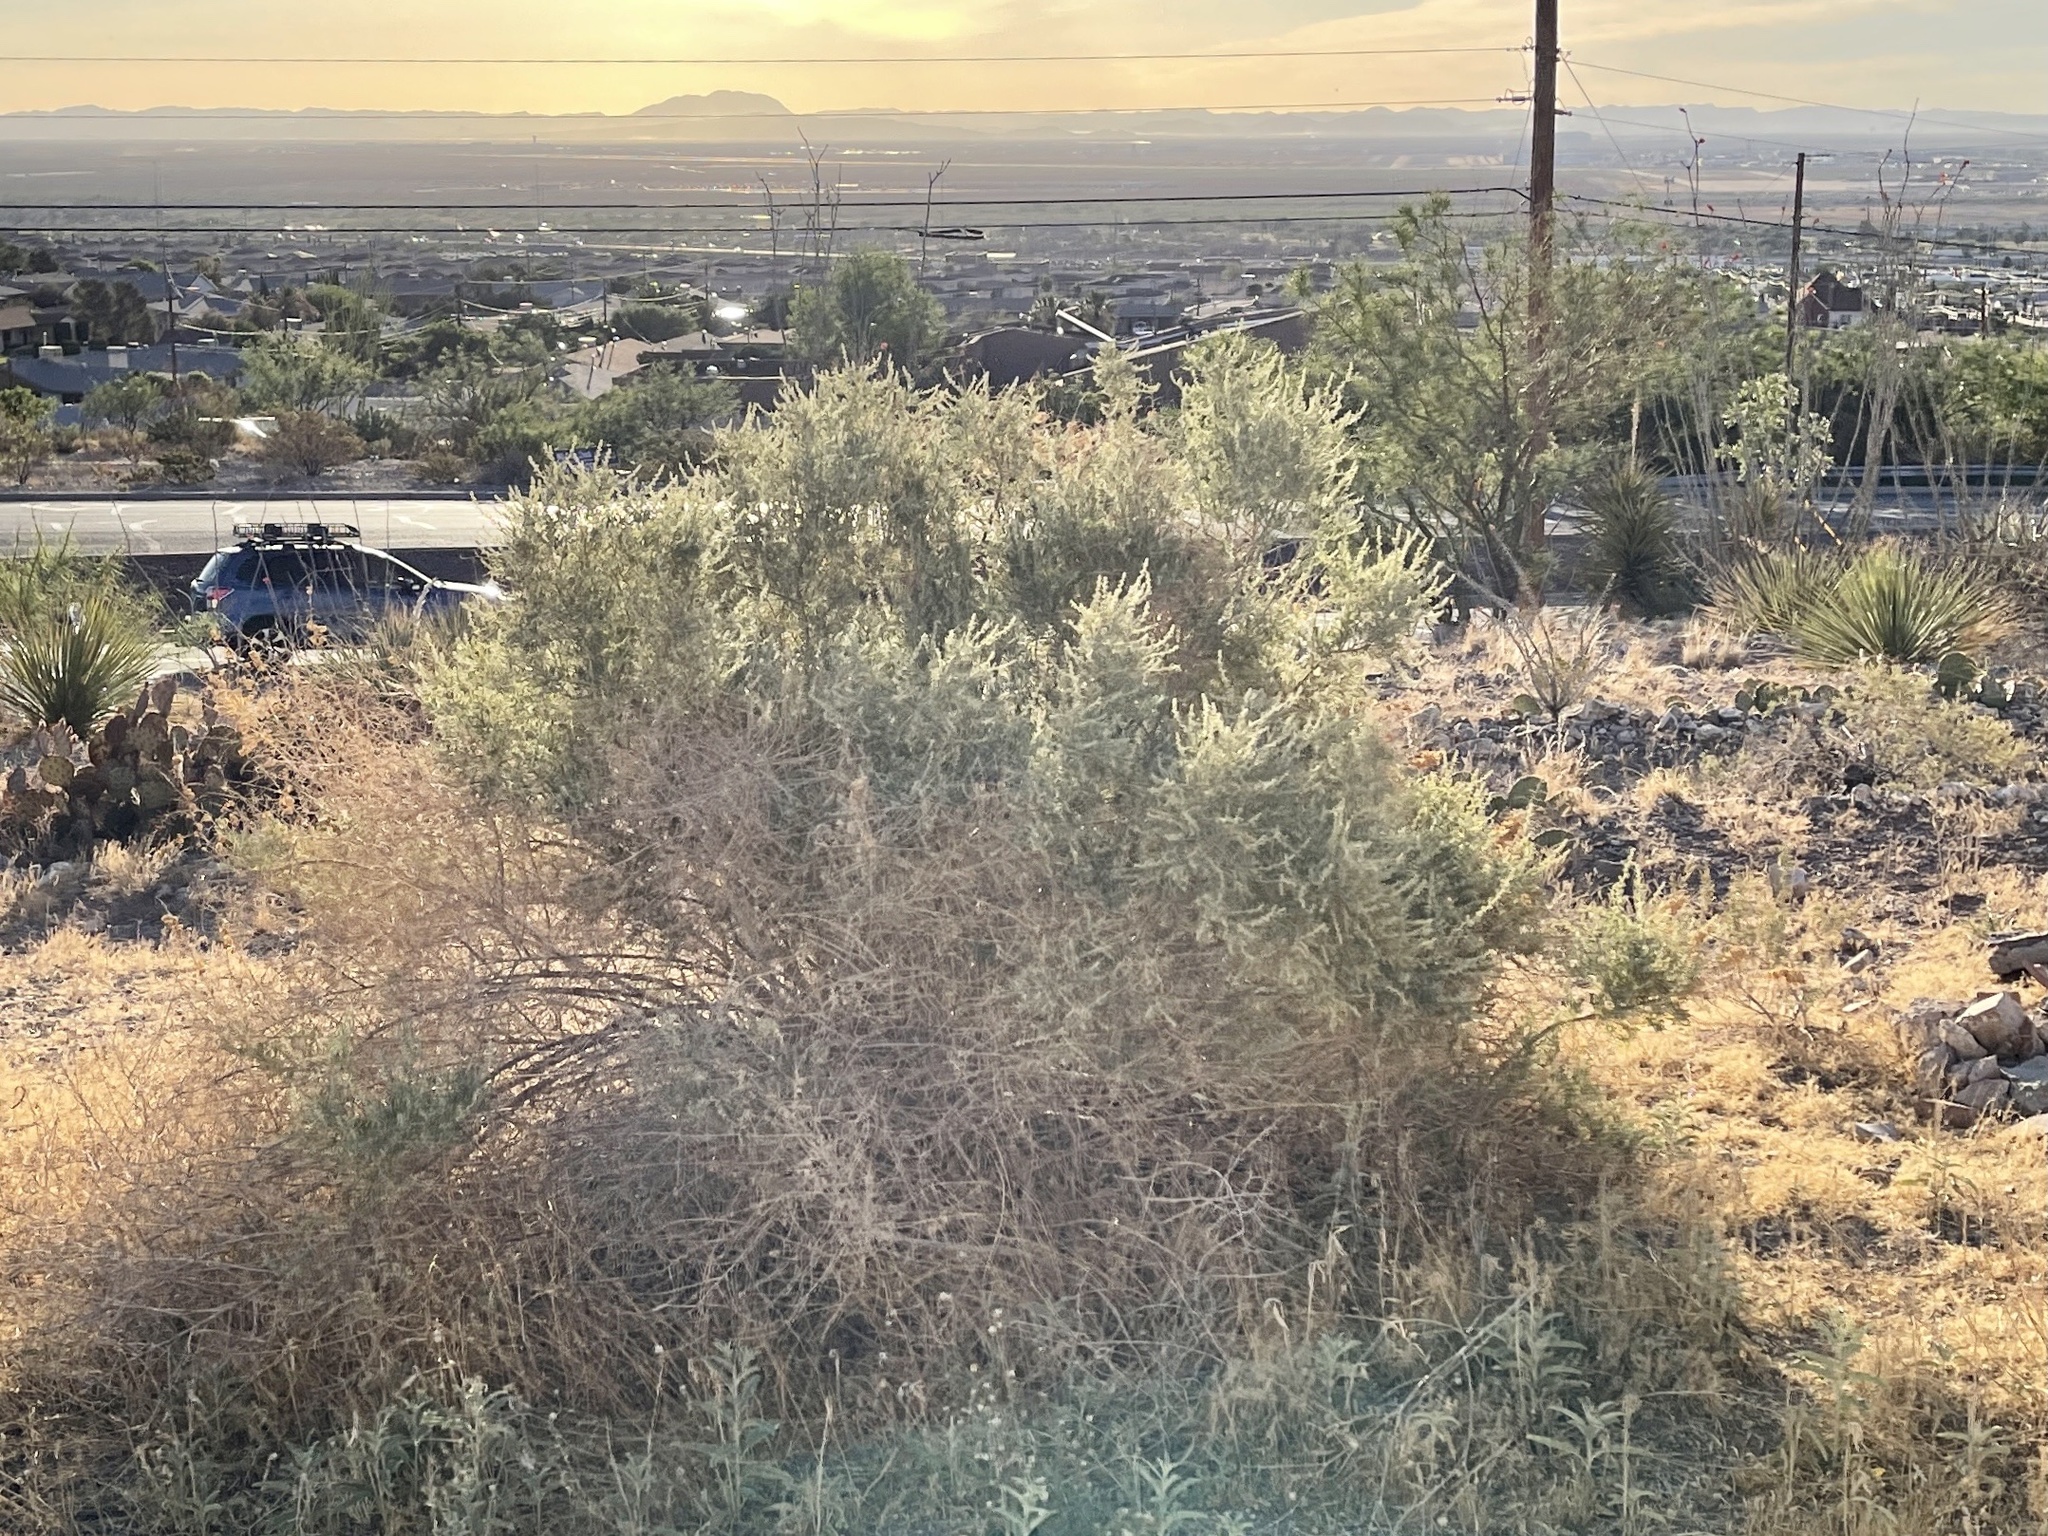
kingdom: Plantae
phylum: Tracheophyta
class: Magnoliopsida
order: Caryophyllales
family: Amaranthaceae
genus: Atriplex
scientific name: Atriplex canescens
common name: Four-wing saltbush
